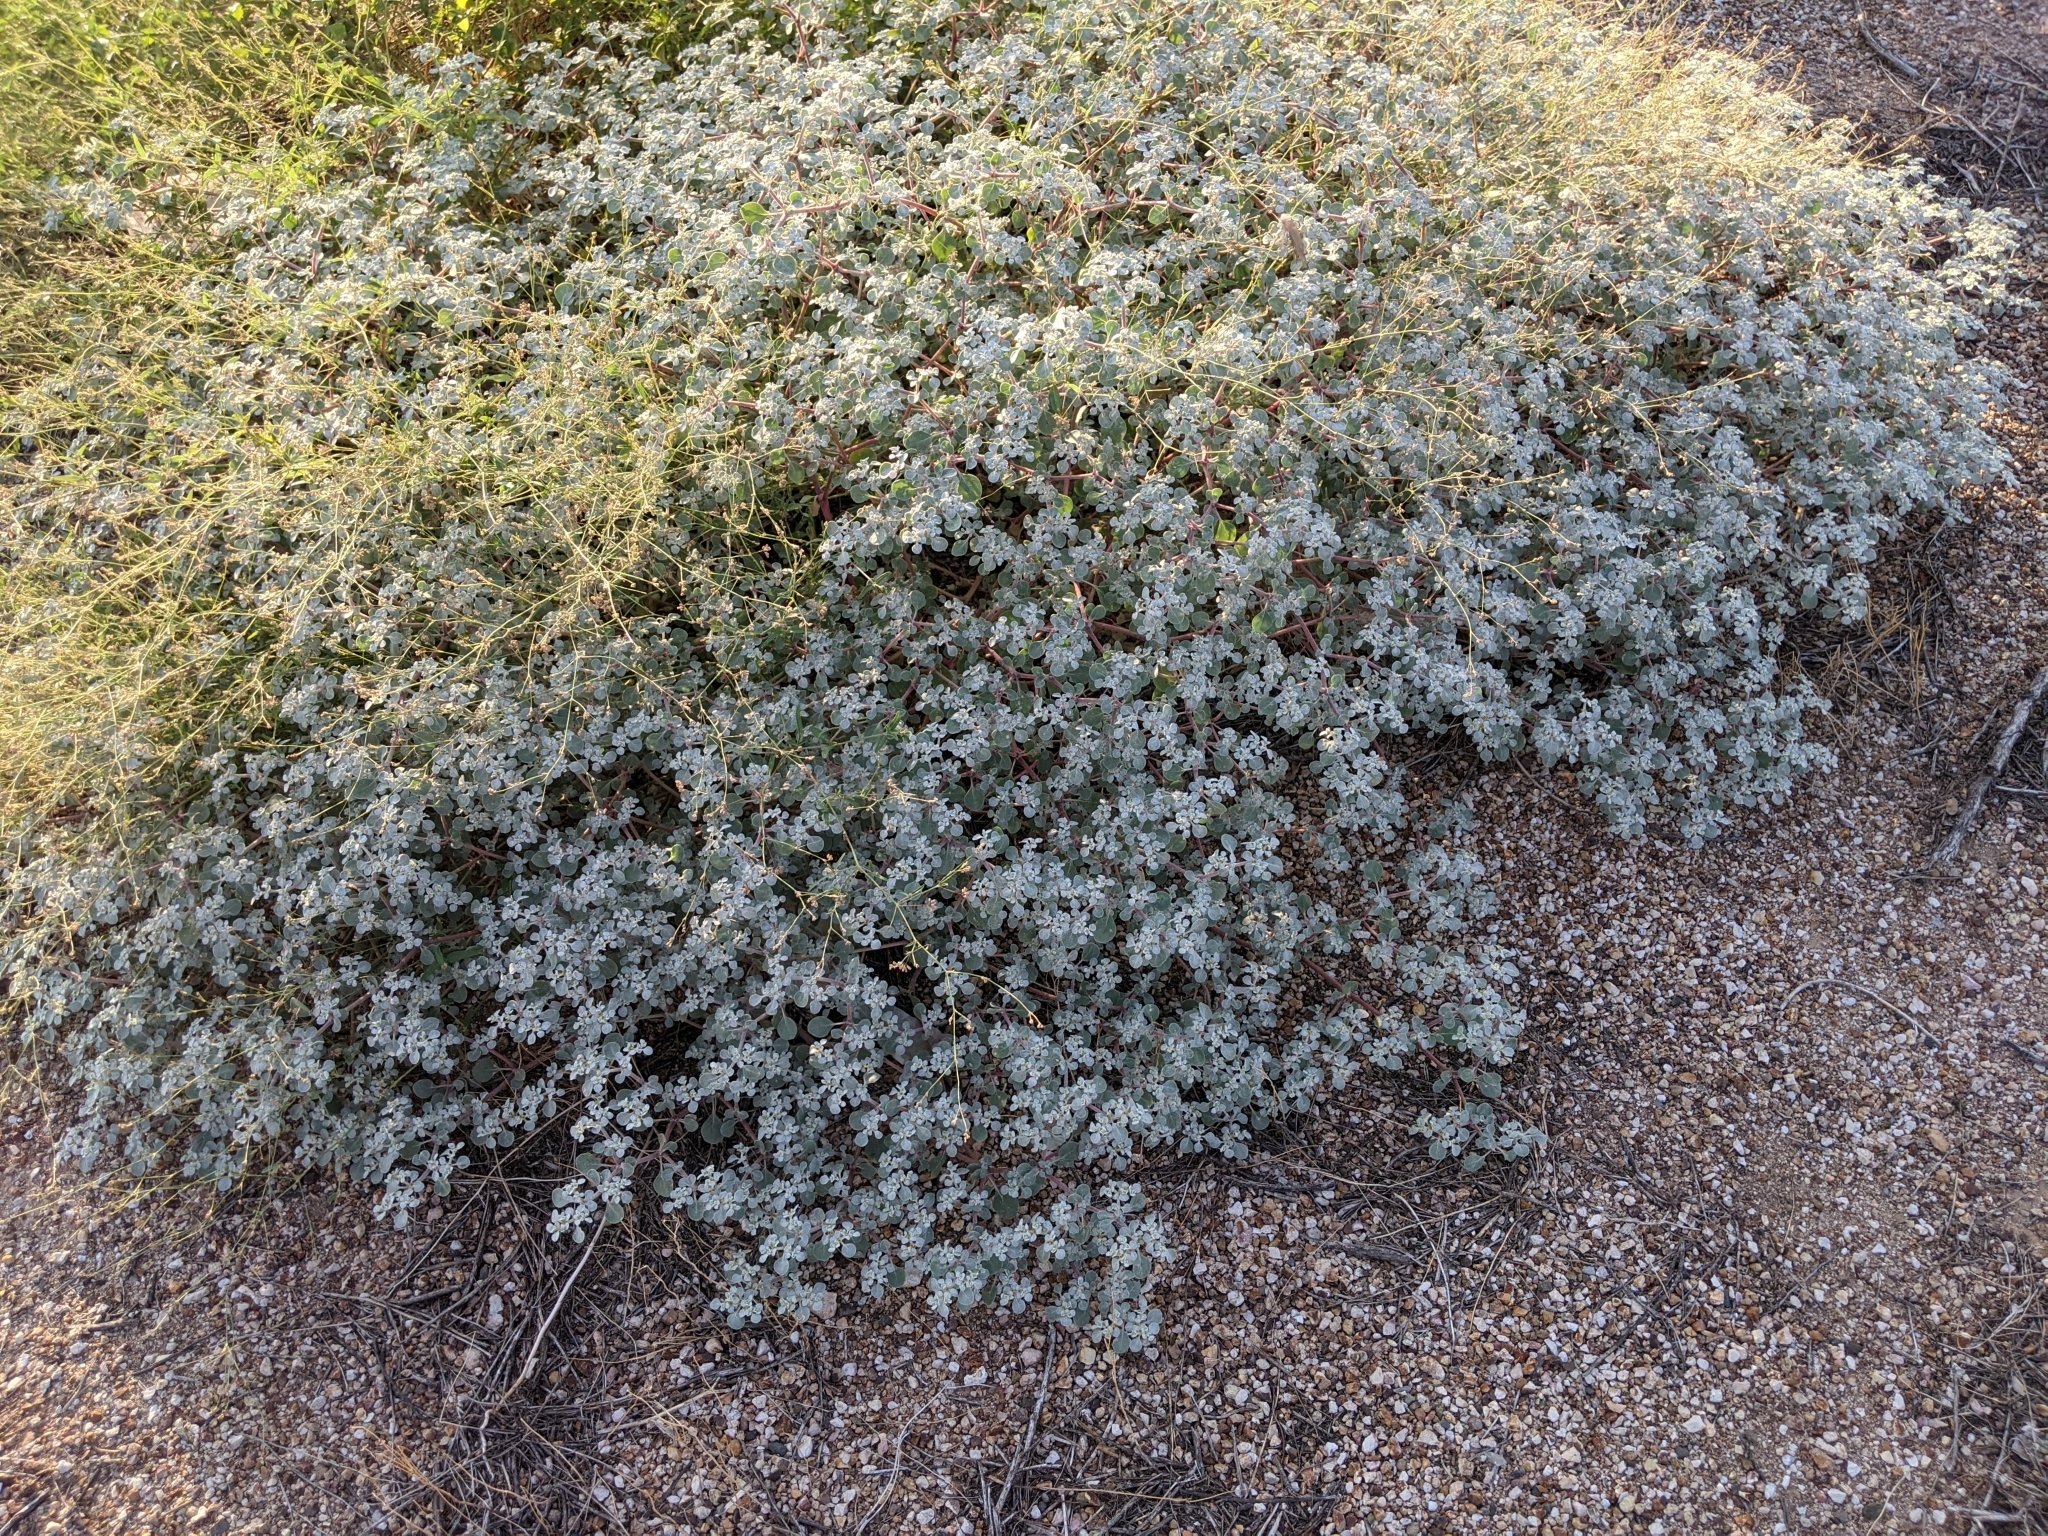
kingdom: Plantae
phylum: Tracheophyta
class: Magnoliopsida
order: Caryophyllales
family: Amaranthaceae
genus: Tidestromia
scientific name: Tidestromia lanuginosa
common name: Woolly tidestromia
